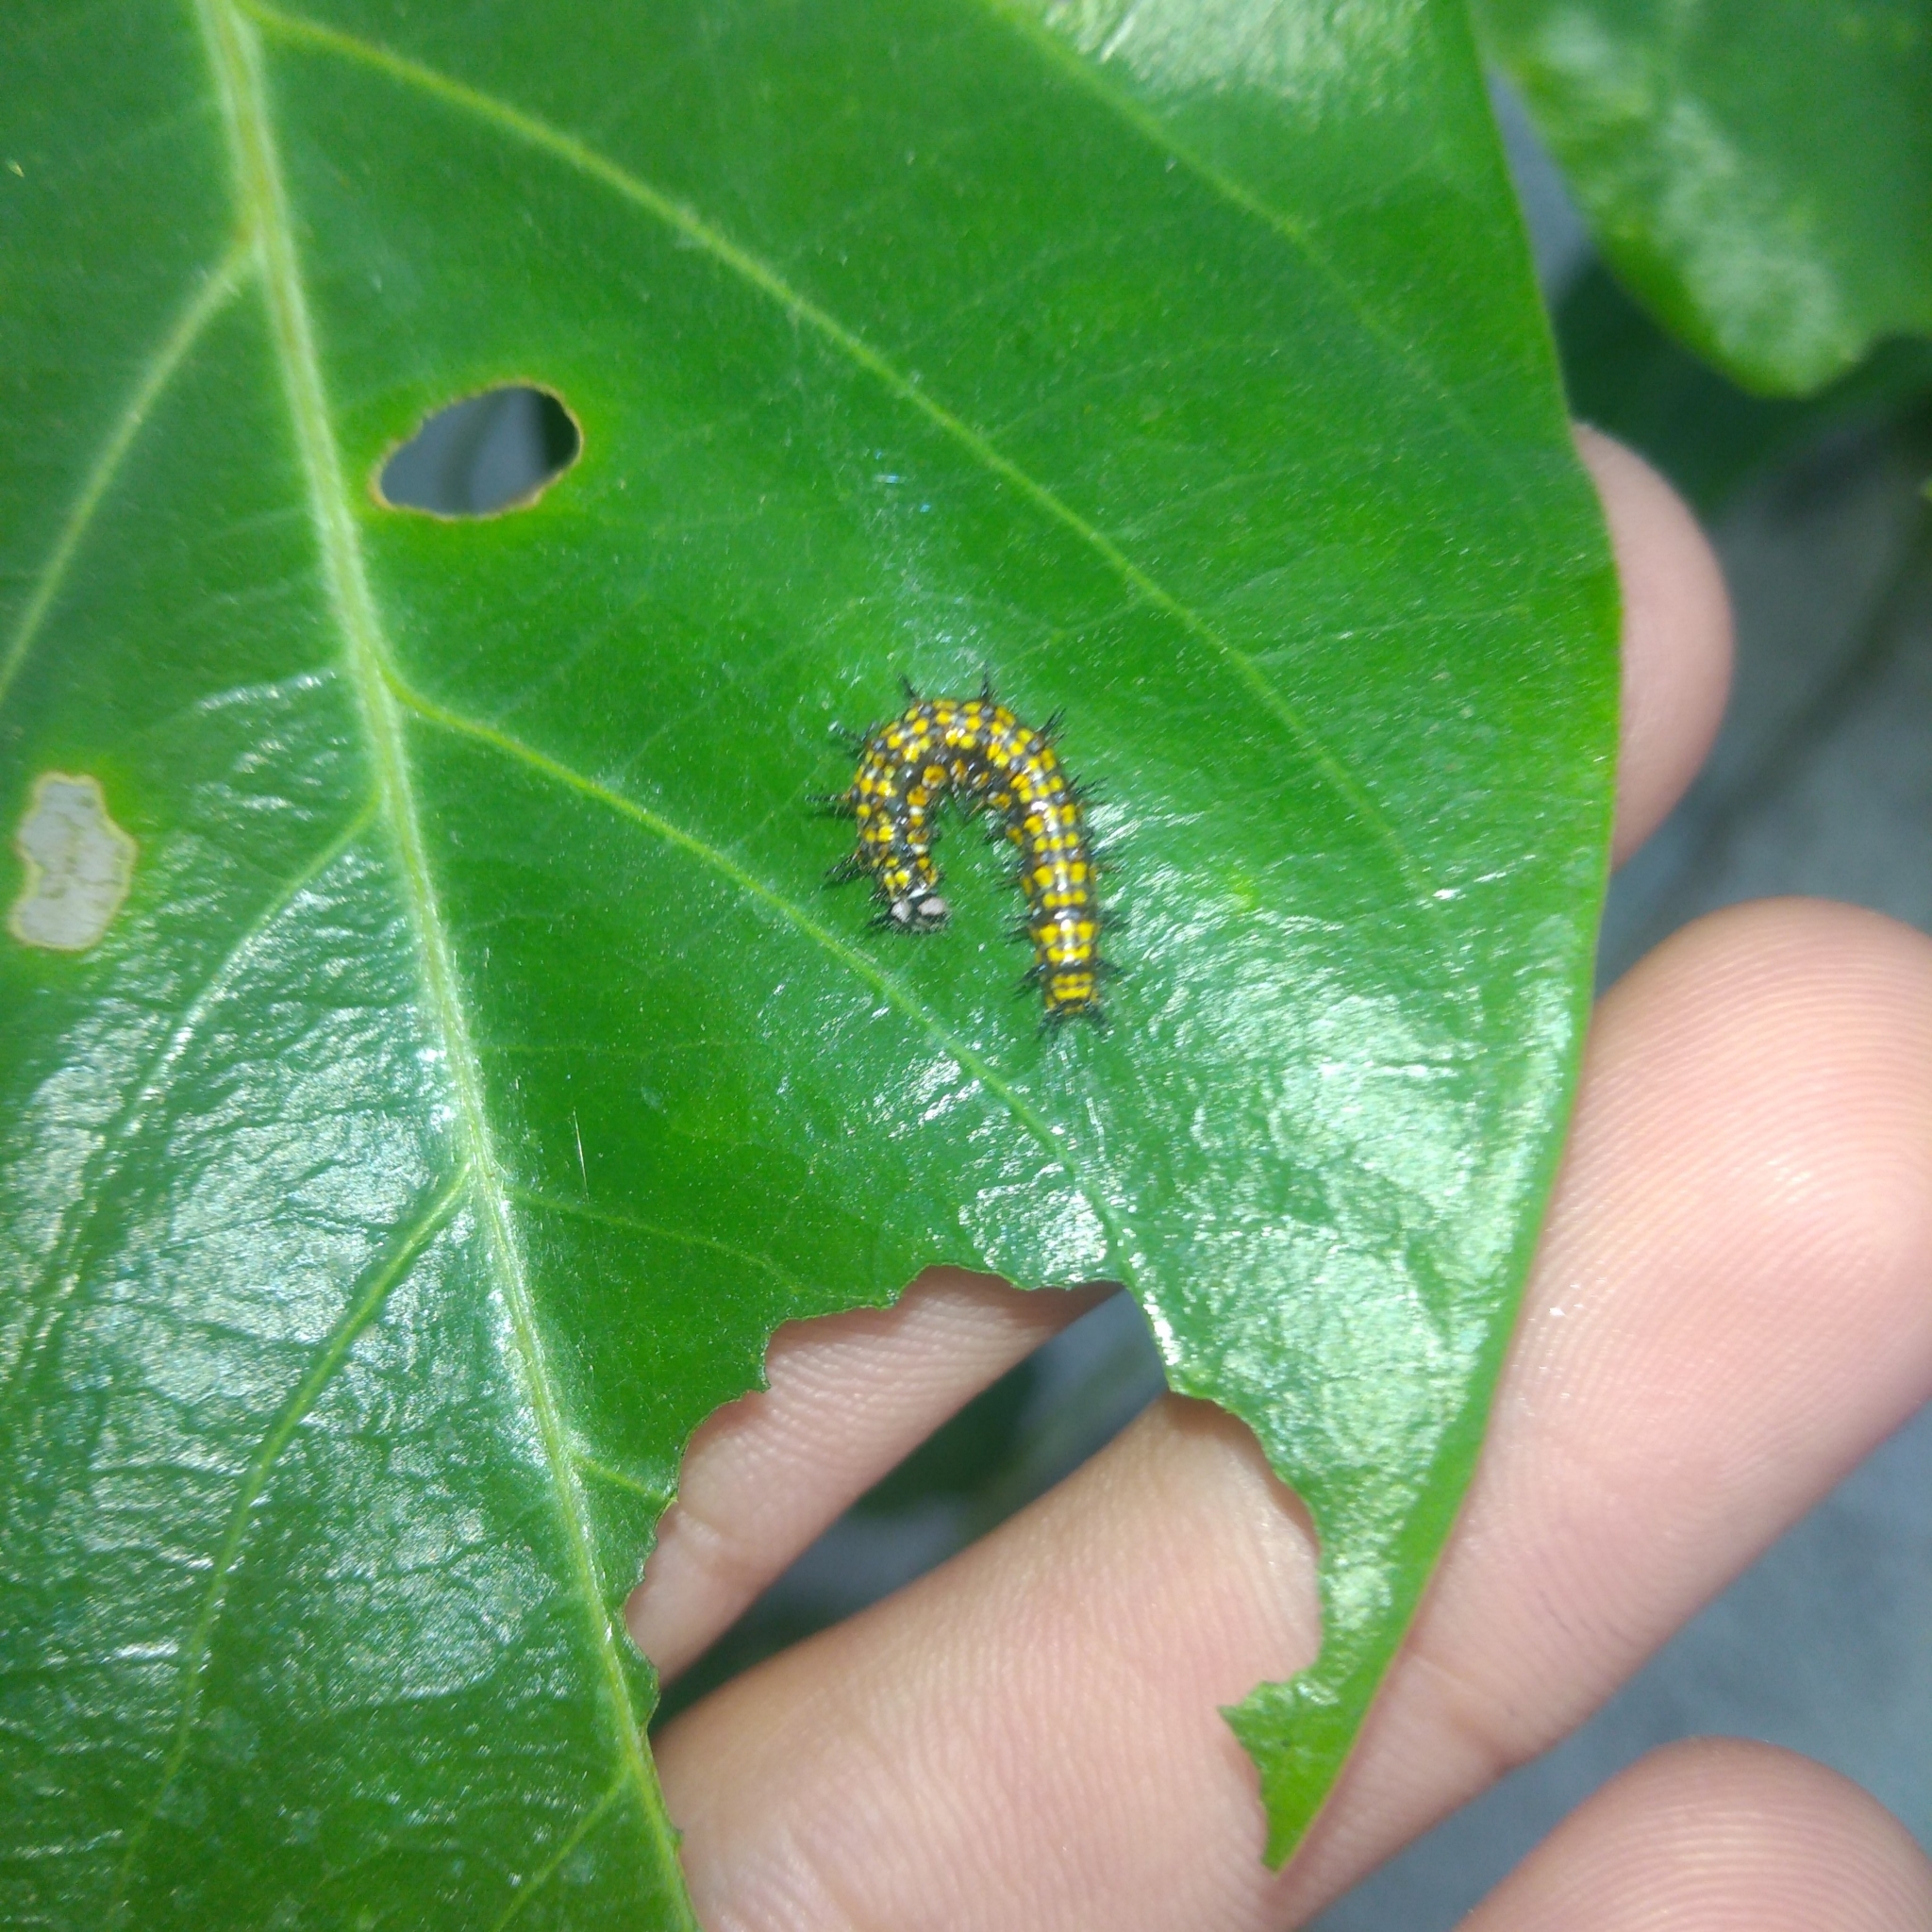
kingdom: Animalia
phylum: Arthropoda
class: Insecta
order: Lepidoptera
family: Nymphalidae
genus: Dione
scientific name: Dione moneta
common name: Mexican silverspot
